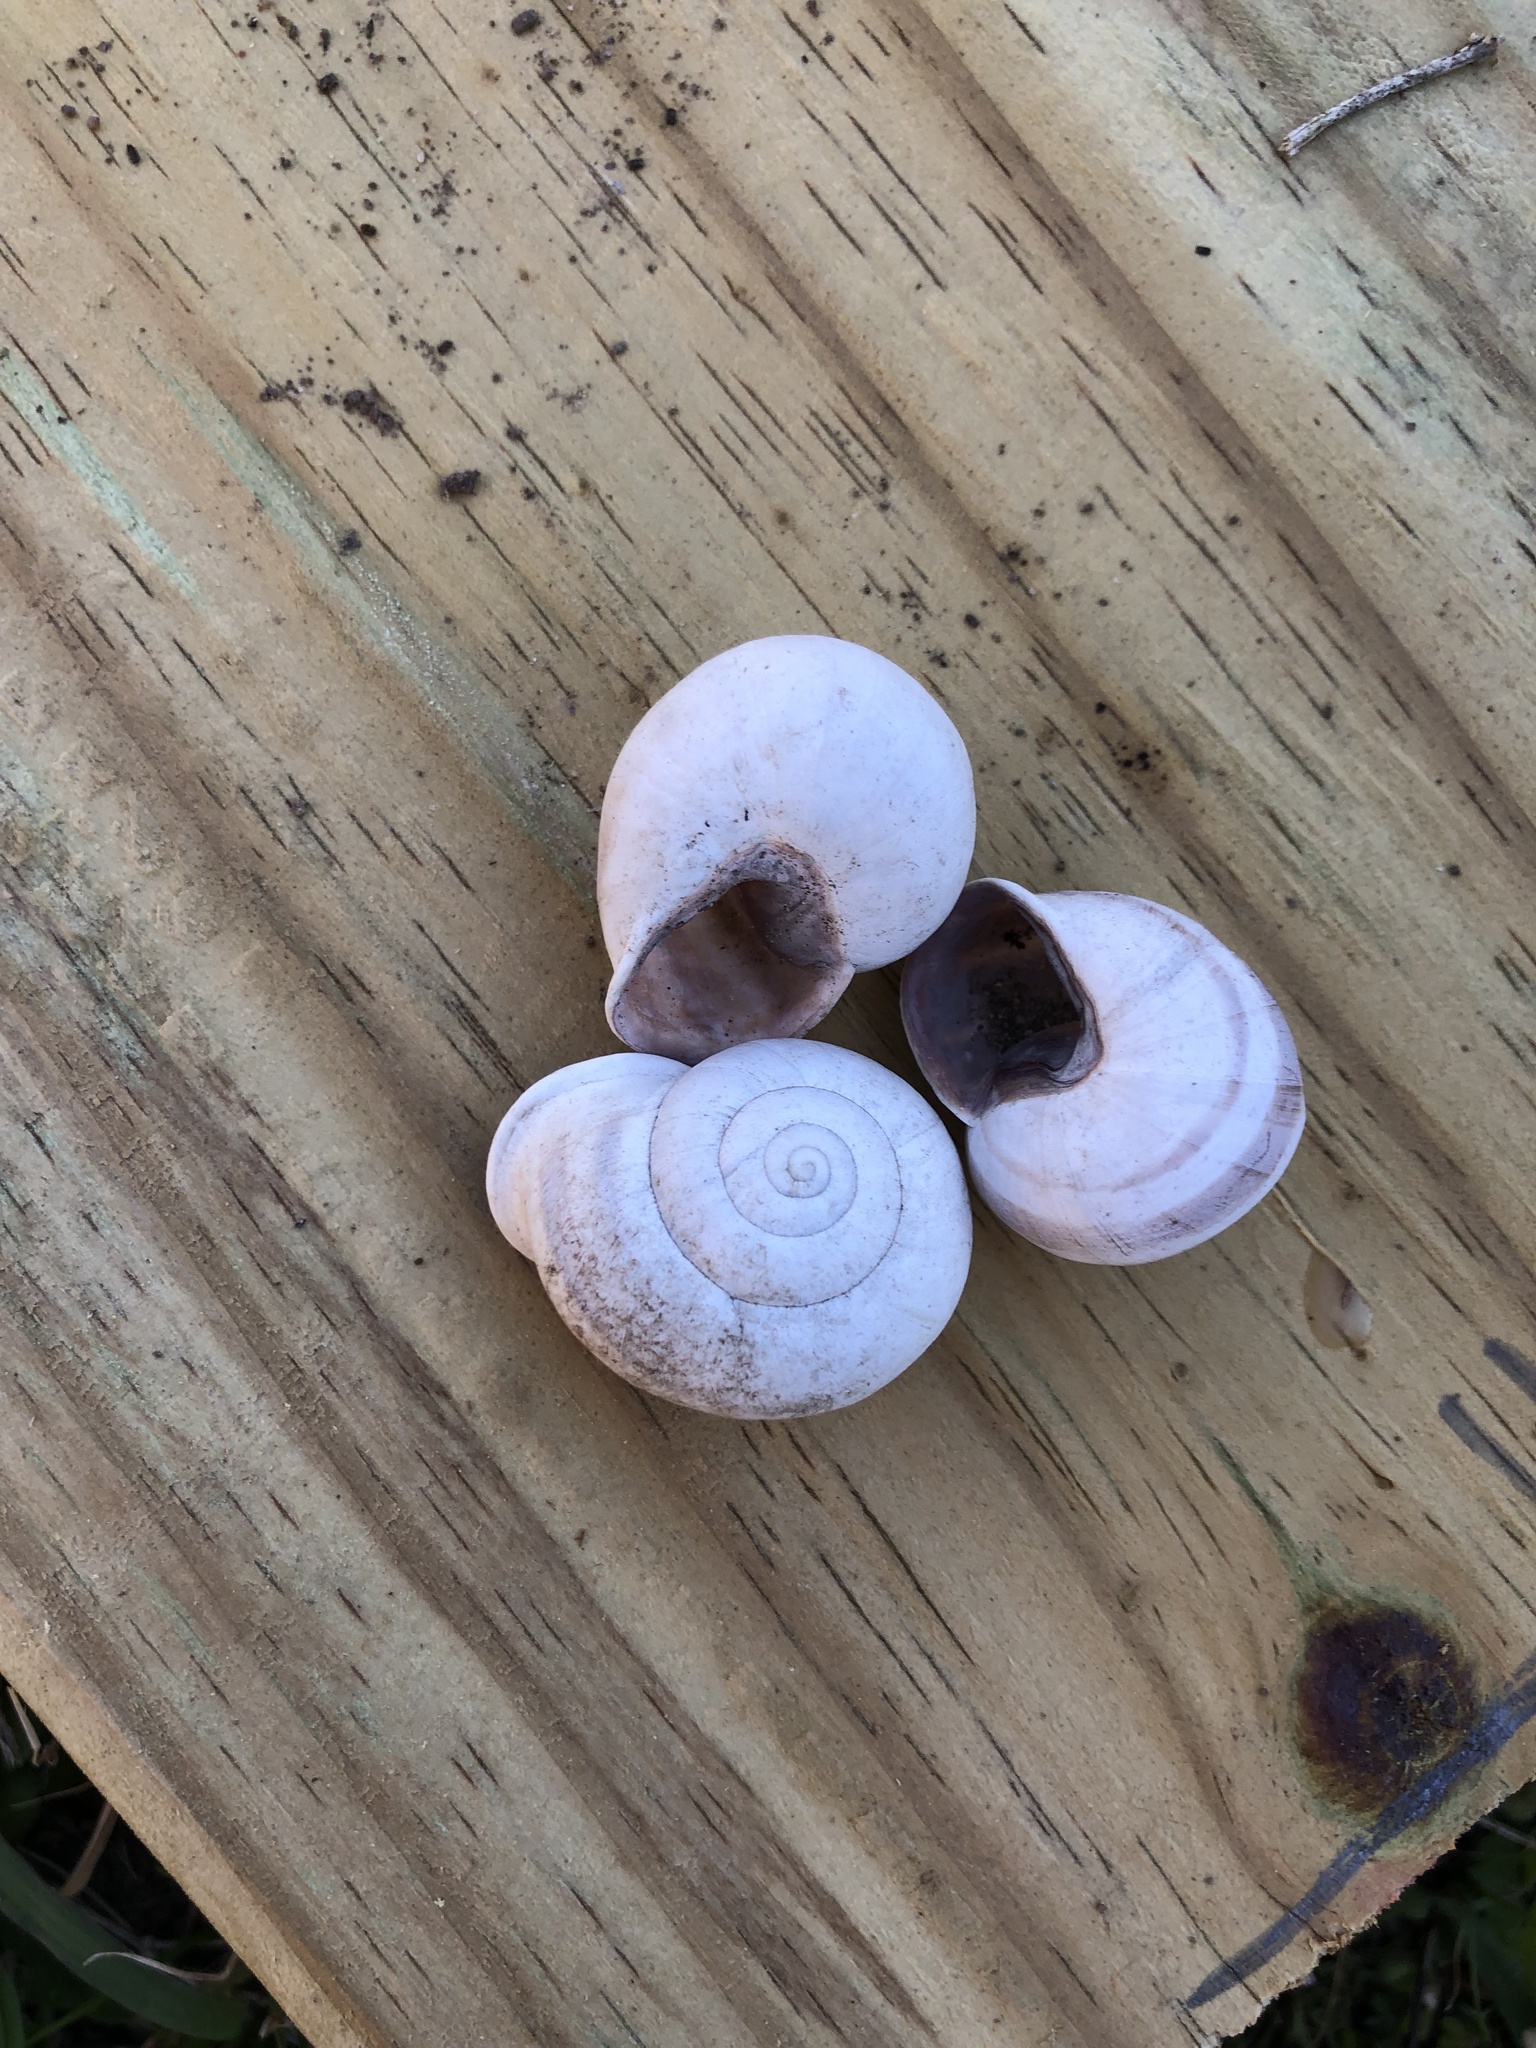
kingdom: Animalia
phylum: Mollusca
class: Gastropoda
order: Stylommatophora
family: Helicidae
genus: Otala
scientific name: Otala lactea
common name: Milk snail
